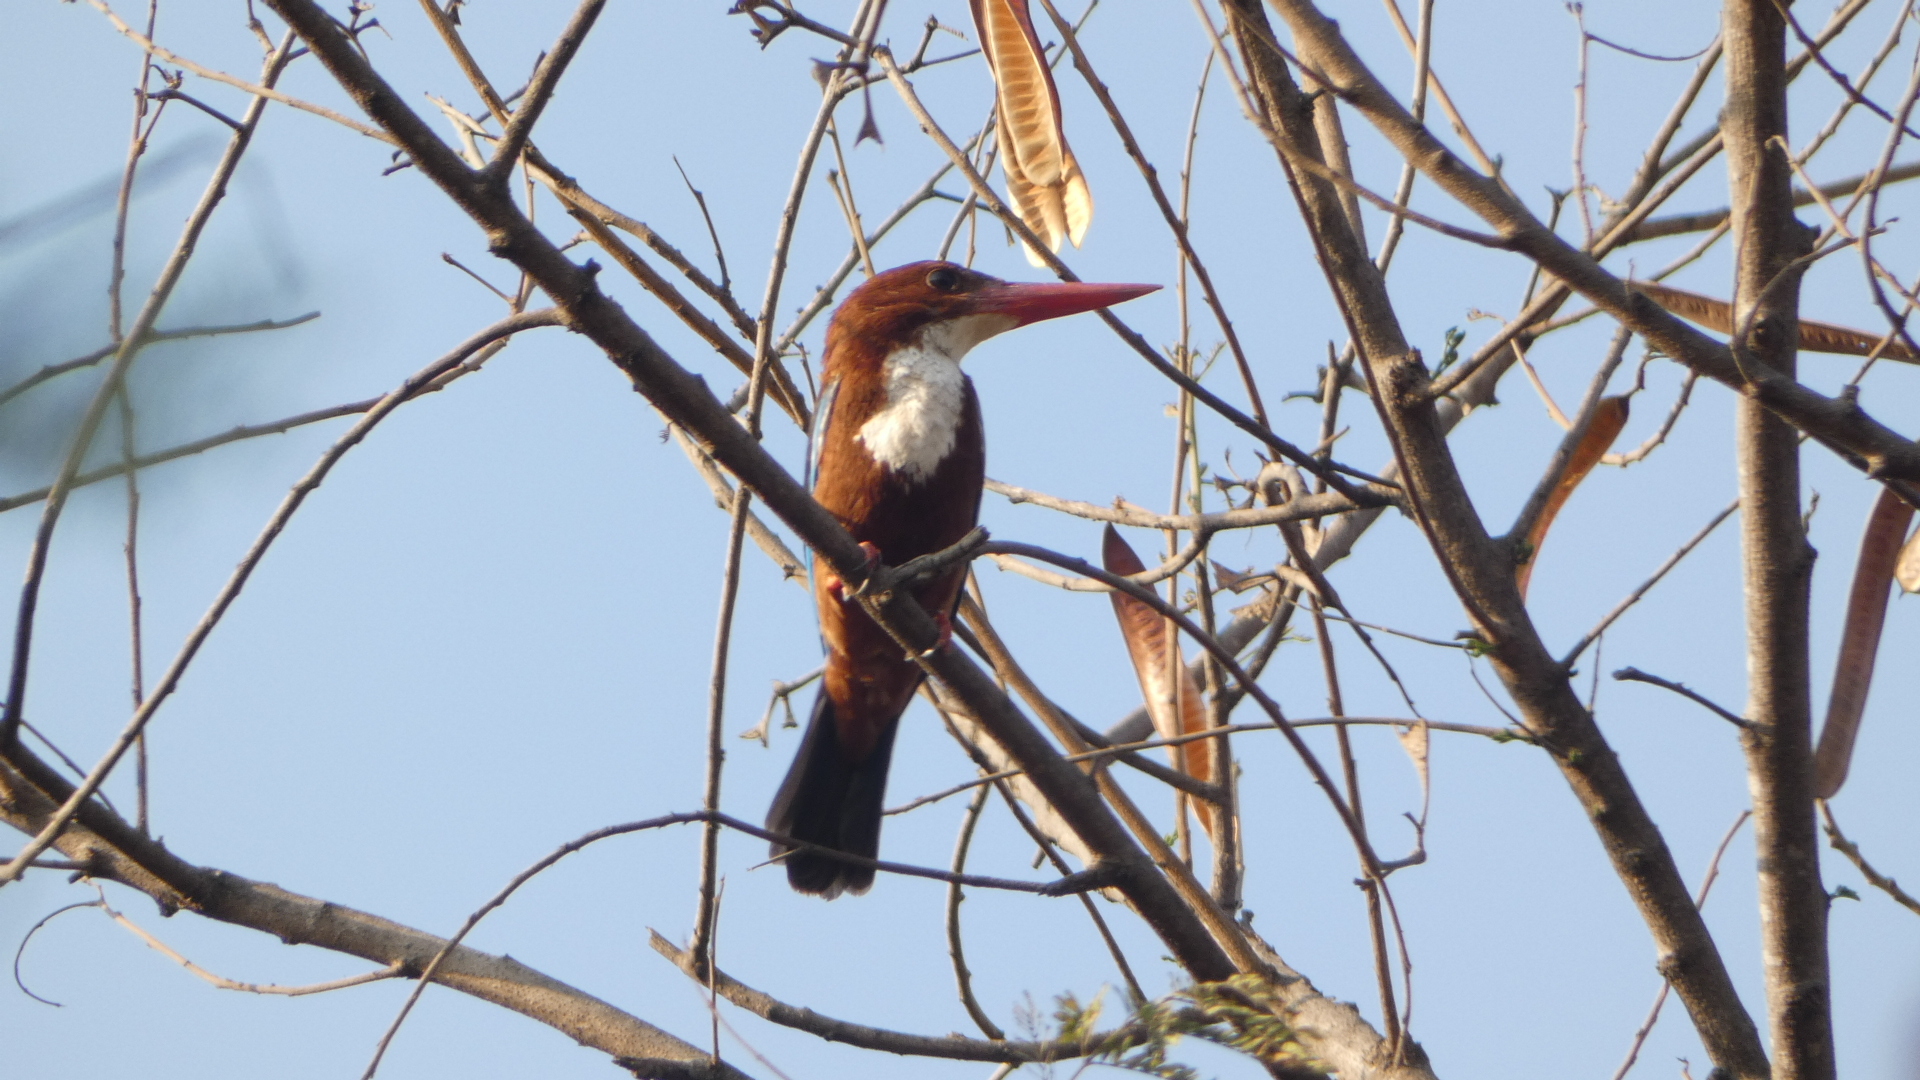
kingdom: Animalia
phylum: Chordata
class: Aves
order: Coraciiformes
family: Alcedinidae
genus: Halcyon
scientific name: Halcyon smyrnensis
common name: White-throated kingfisher
